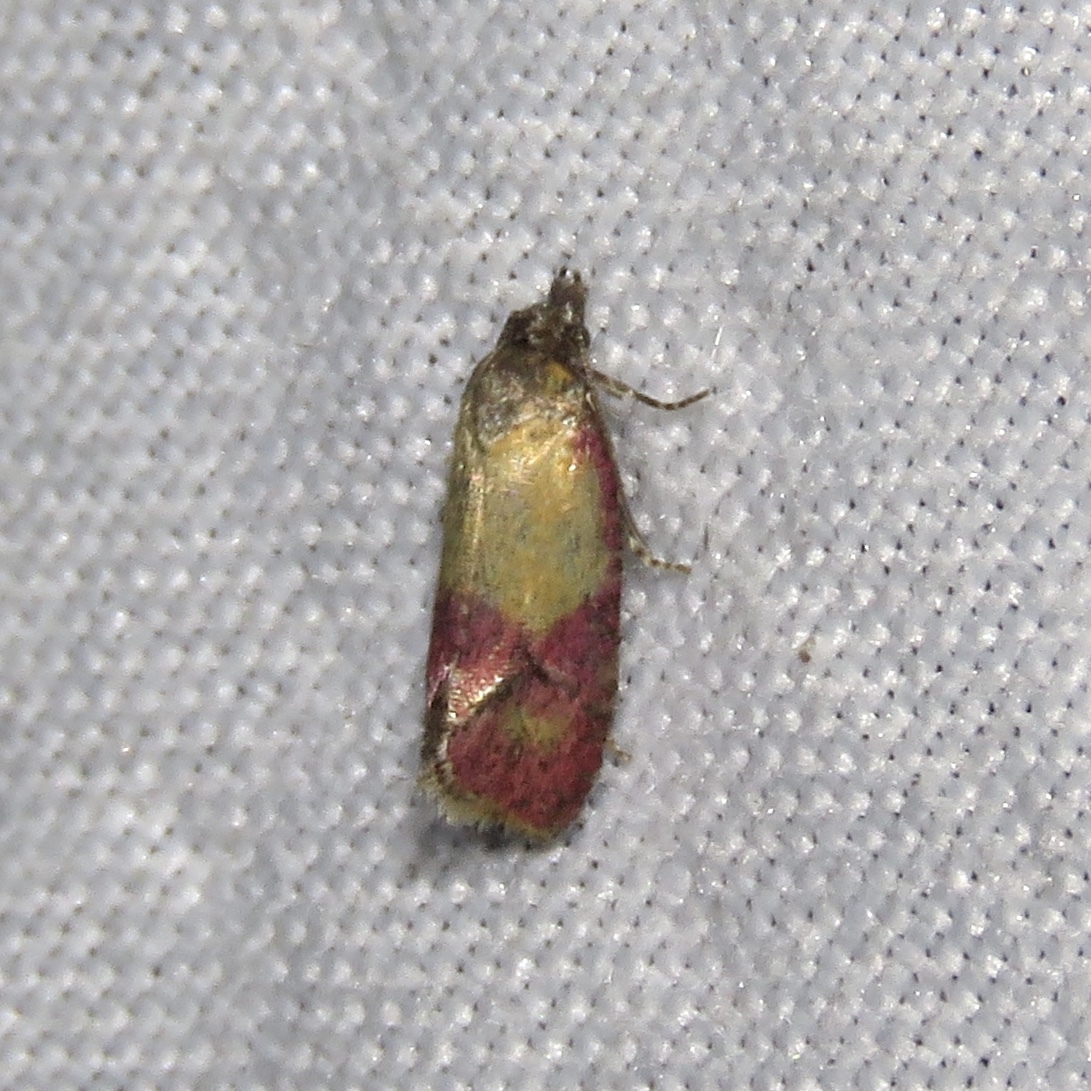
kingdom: Animalia
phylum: Arthropoda
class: Insecta
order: Lepidoptera
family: Tortricidae
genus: Conchylis
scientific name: Conchylis oenotherana
